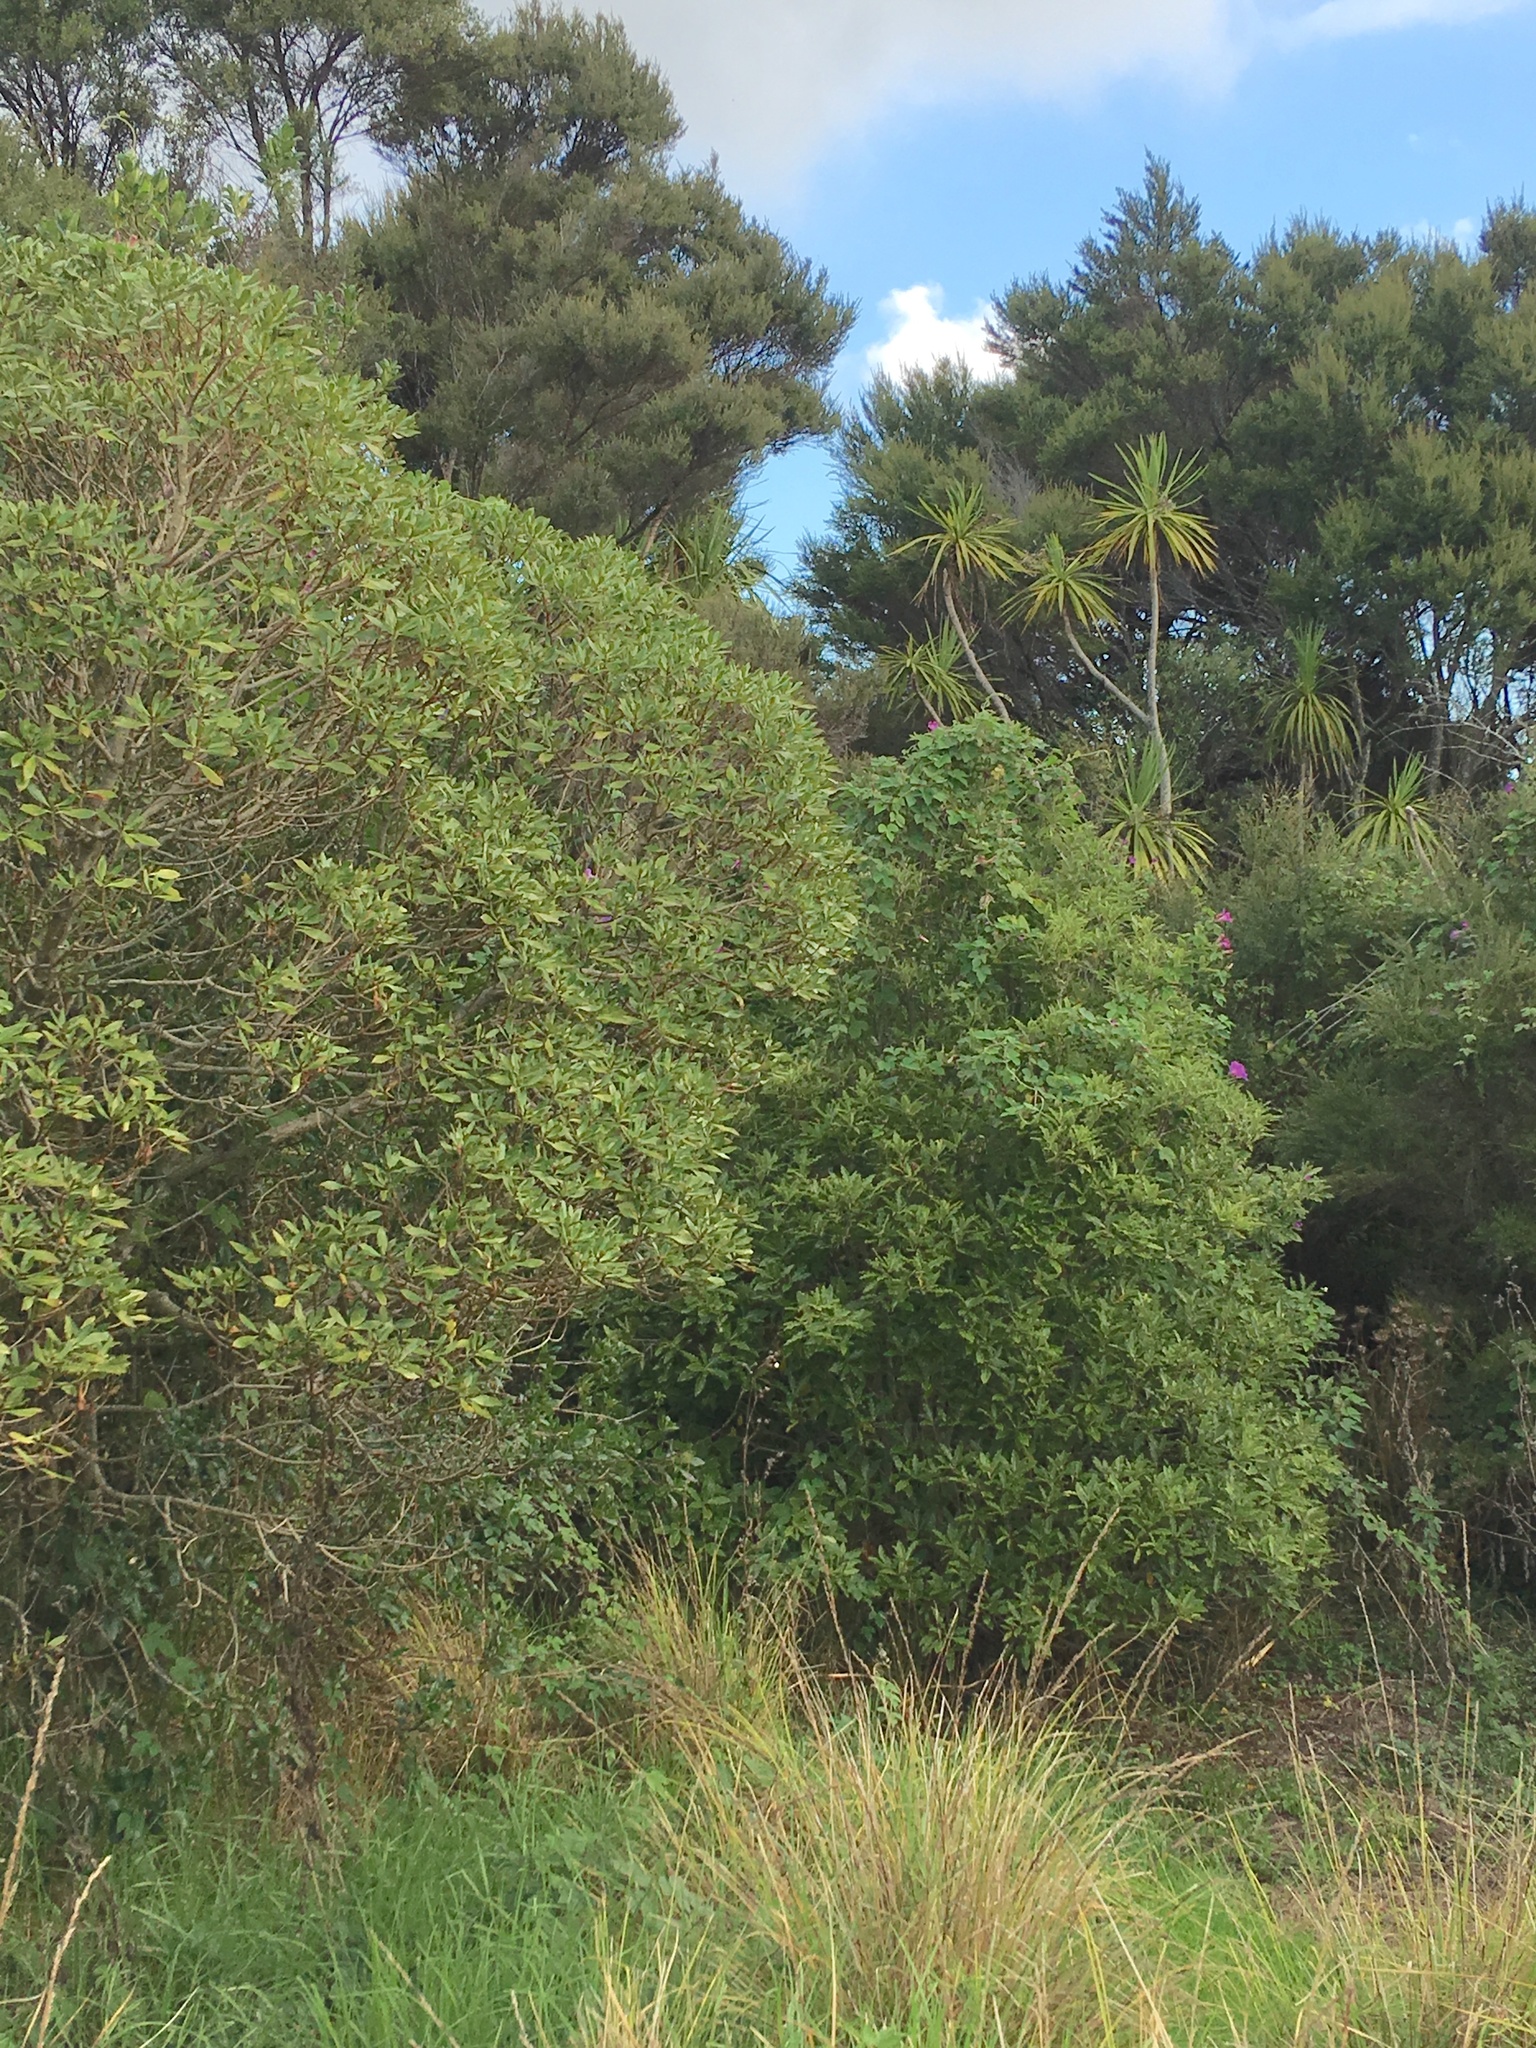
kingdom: Plantae
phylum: Tracheophyta
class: Magnoliopsida
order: Solanales
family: Convolvulaceae
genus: Ipomoea
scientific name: Ipomoea indica
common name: Blue dawnflower
